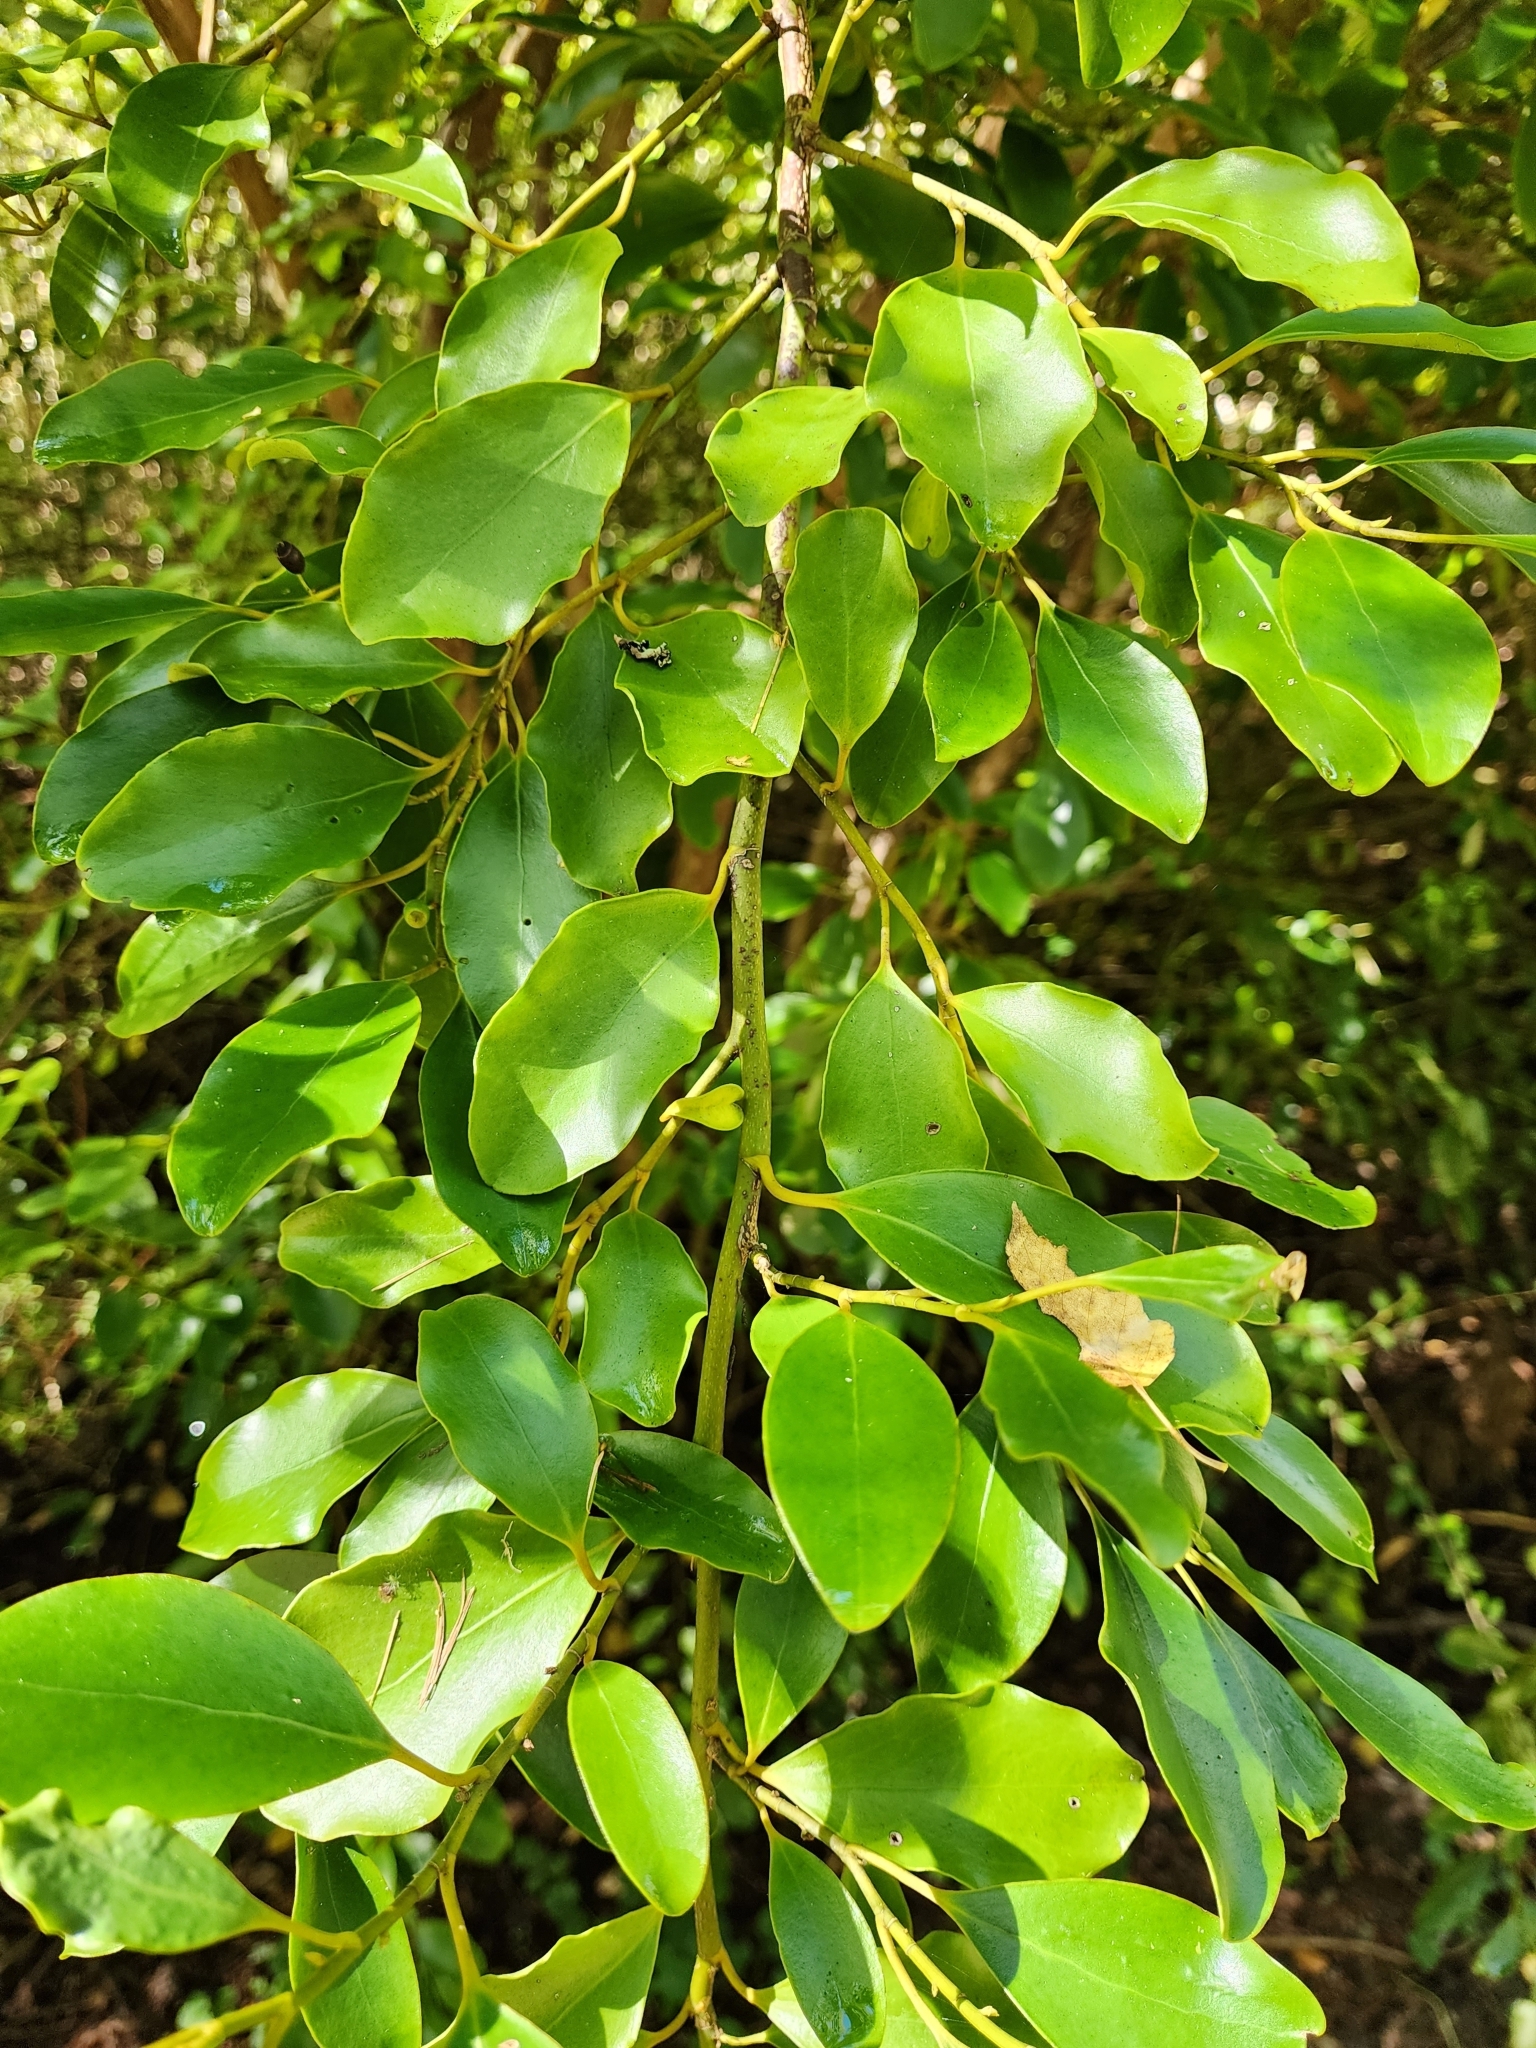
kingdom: Plantae
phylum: Tracheophyta
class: Magnoliopsida
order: Apiales
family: Griseliniaceae
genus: Griselinia
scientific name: Griselinia littoralis
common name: New zealand broadleaf
